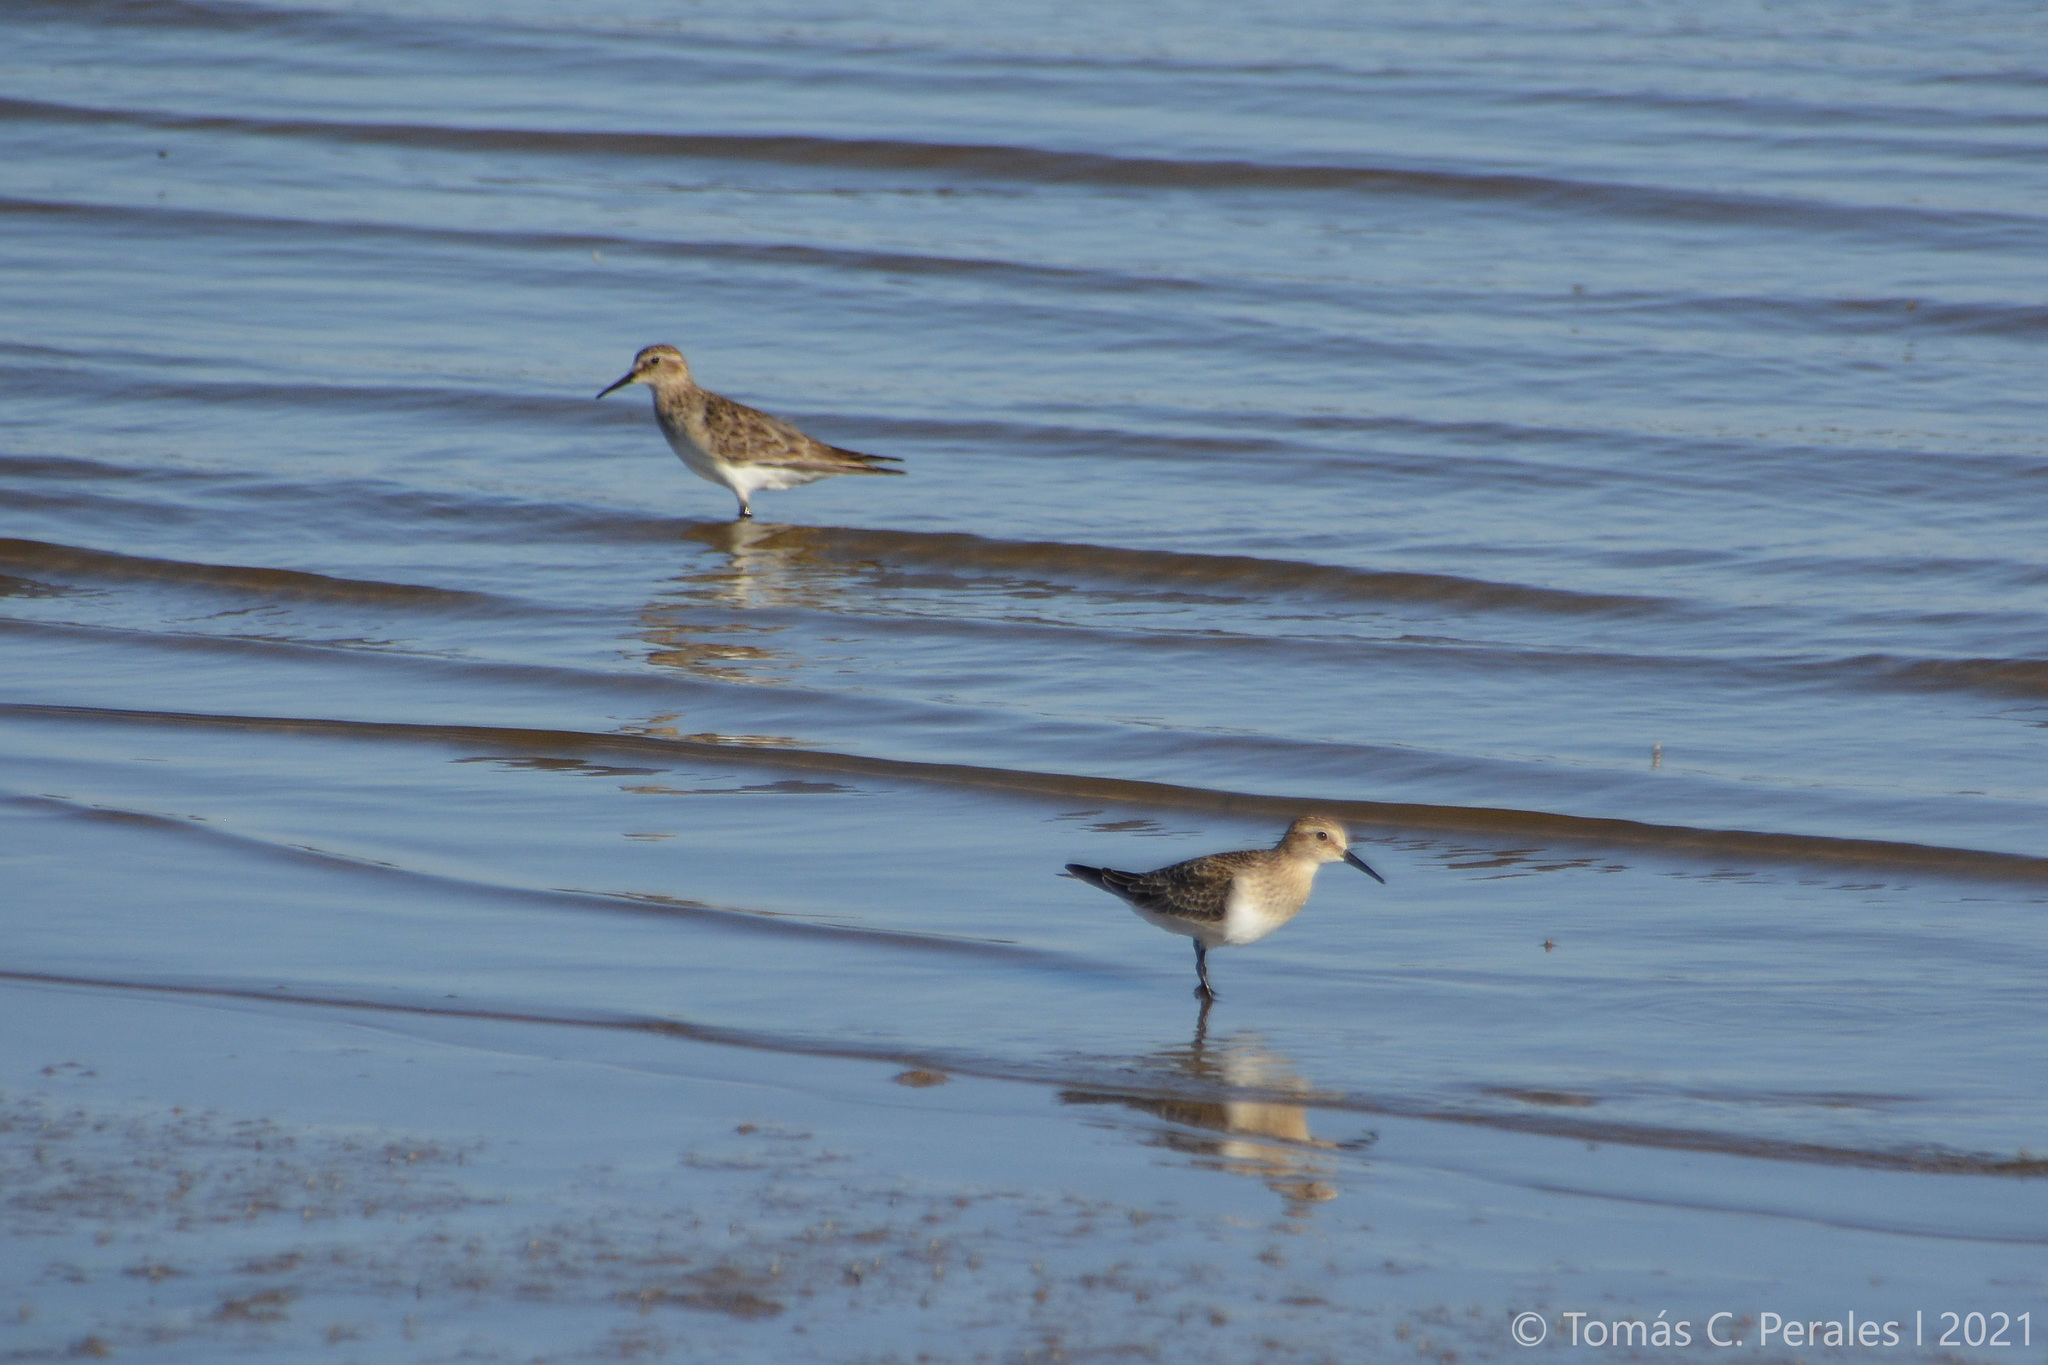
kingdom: Animalia
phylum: Chordata
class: Aves
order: Charadriiformes
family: Scolopacidae
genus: Calidris
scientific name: Calidris bairdii
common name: Baird's sandpiper
